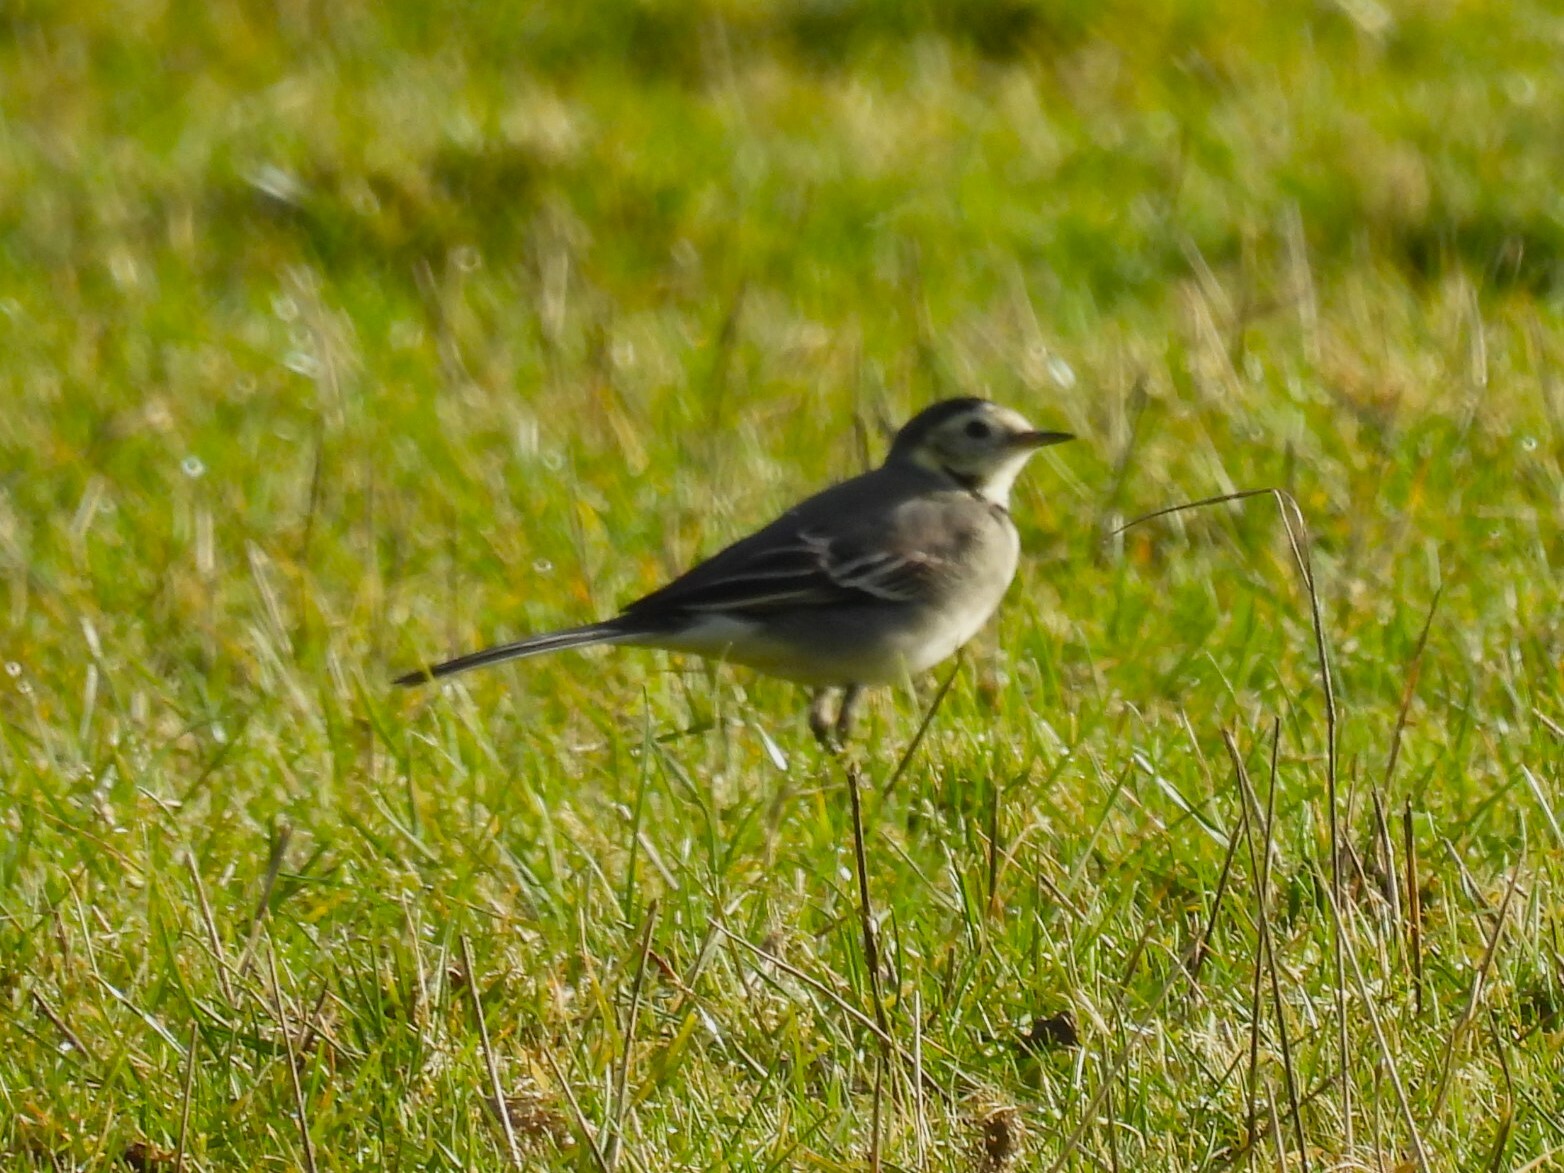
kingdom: Animalia
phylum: Chordata
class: Aves
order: Passeriformes
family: Motacillidae
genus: Motacilla
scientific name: Motacilla alba
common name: White wagtail
